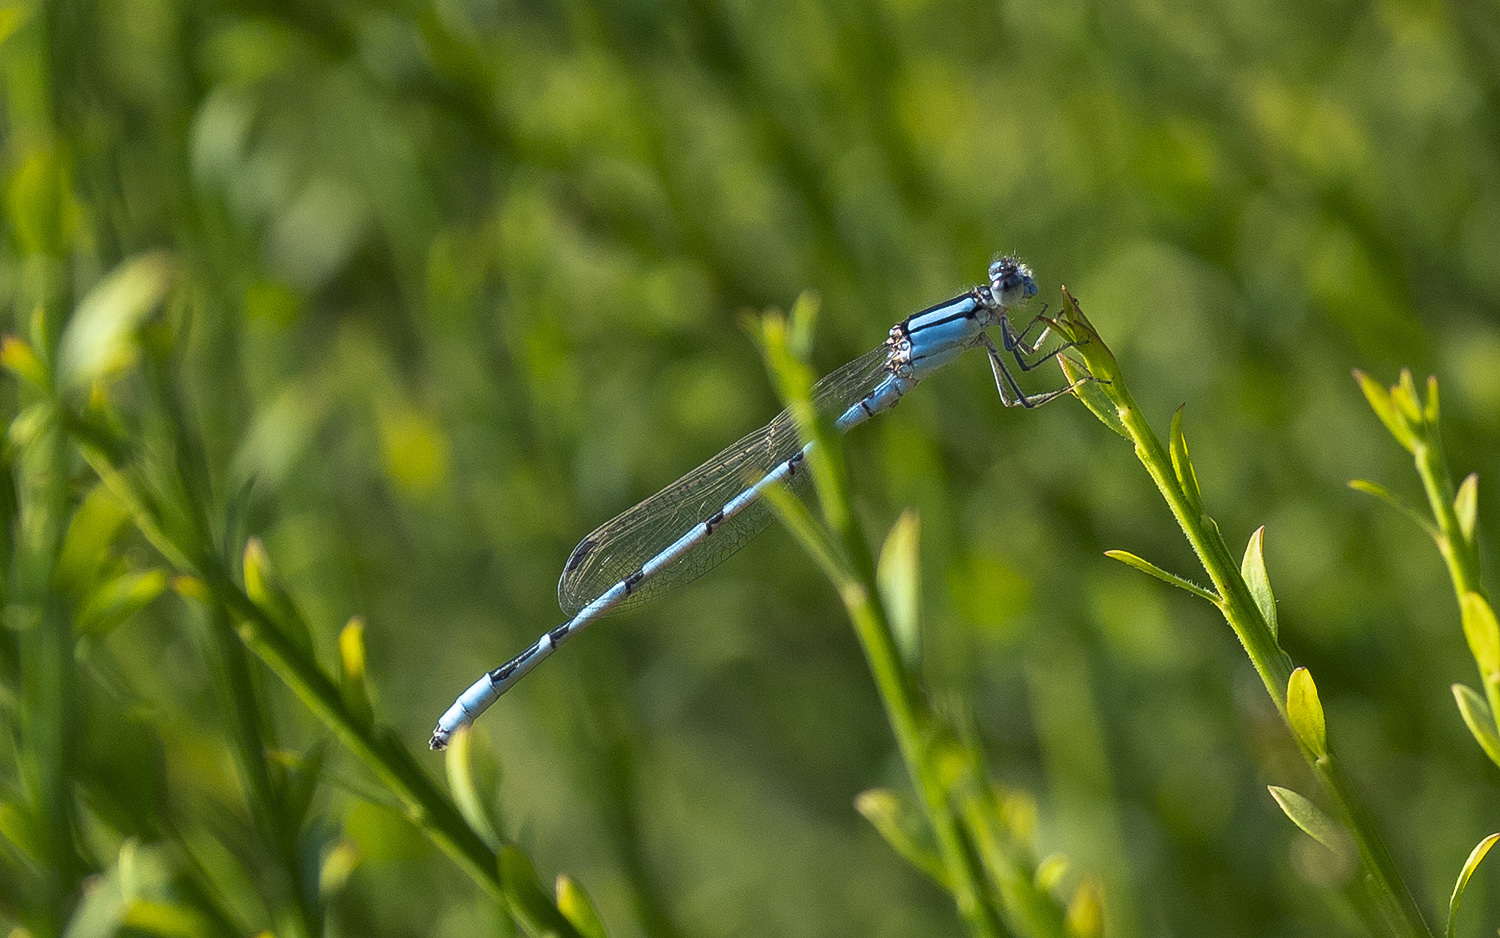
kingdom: Animalia
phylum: Arthropoda
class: Insecta
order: Odonata
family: Coenagrionidae
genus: Enallagma
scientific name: Enallagma civile
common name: Damselfly
